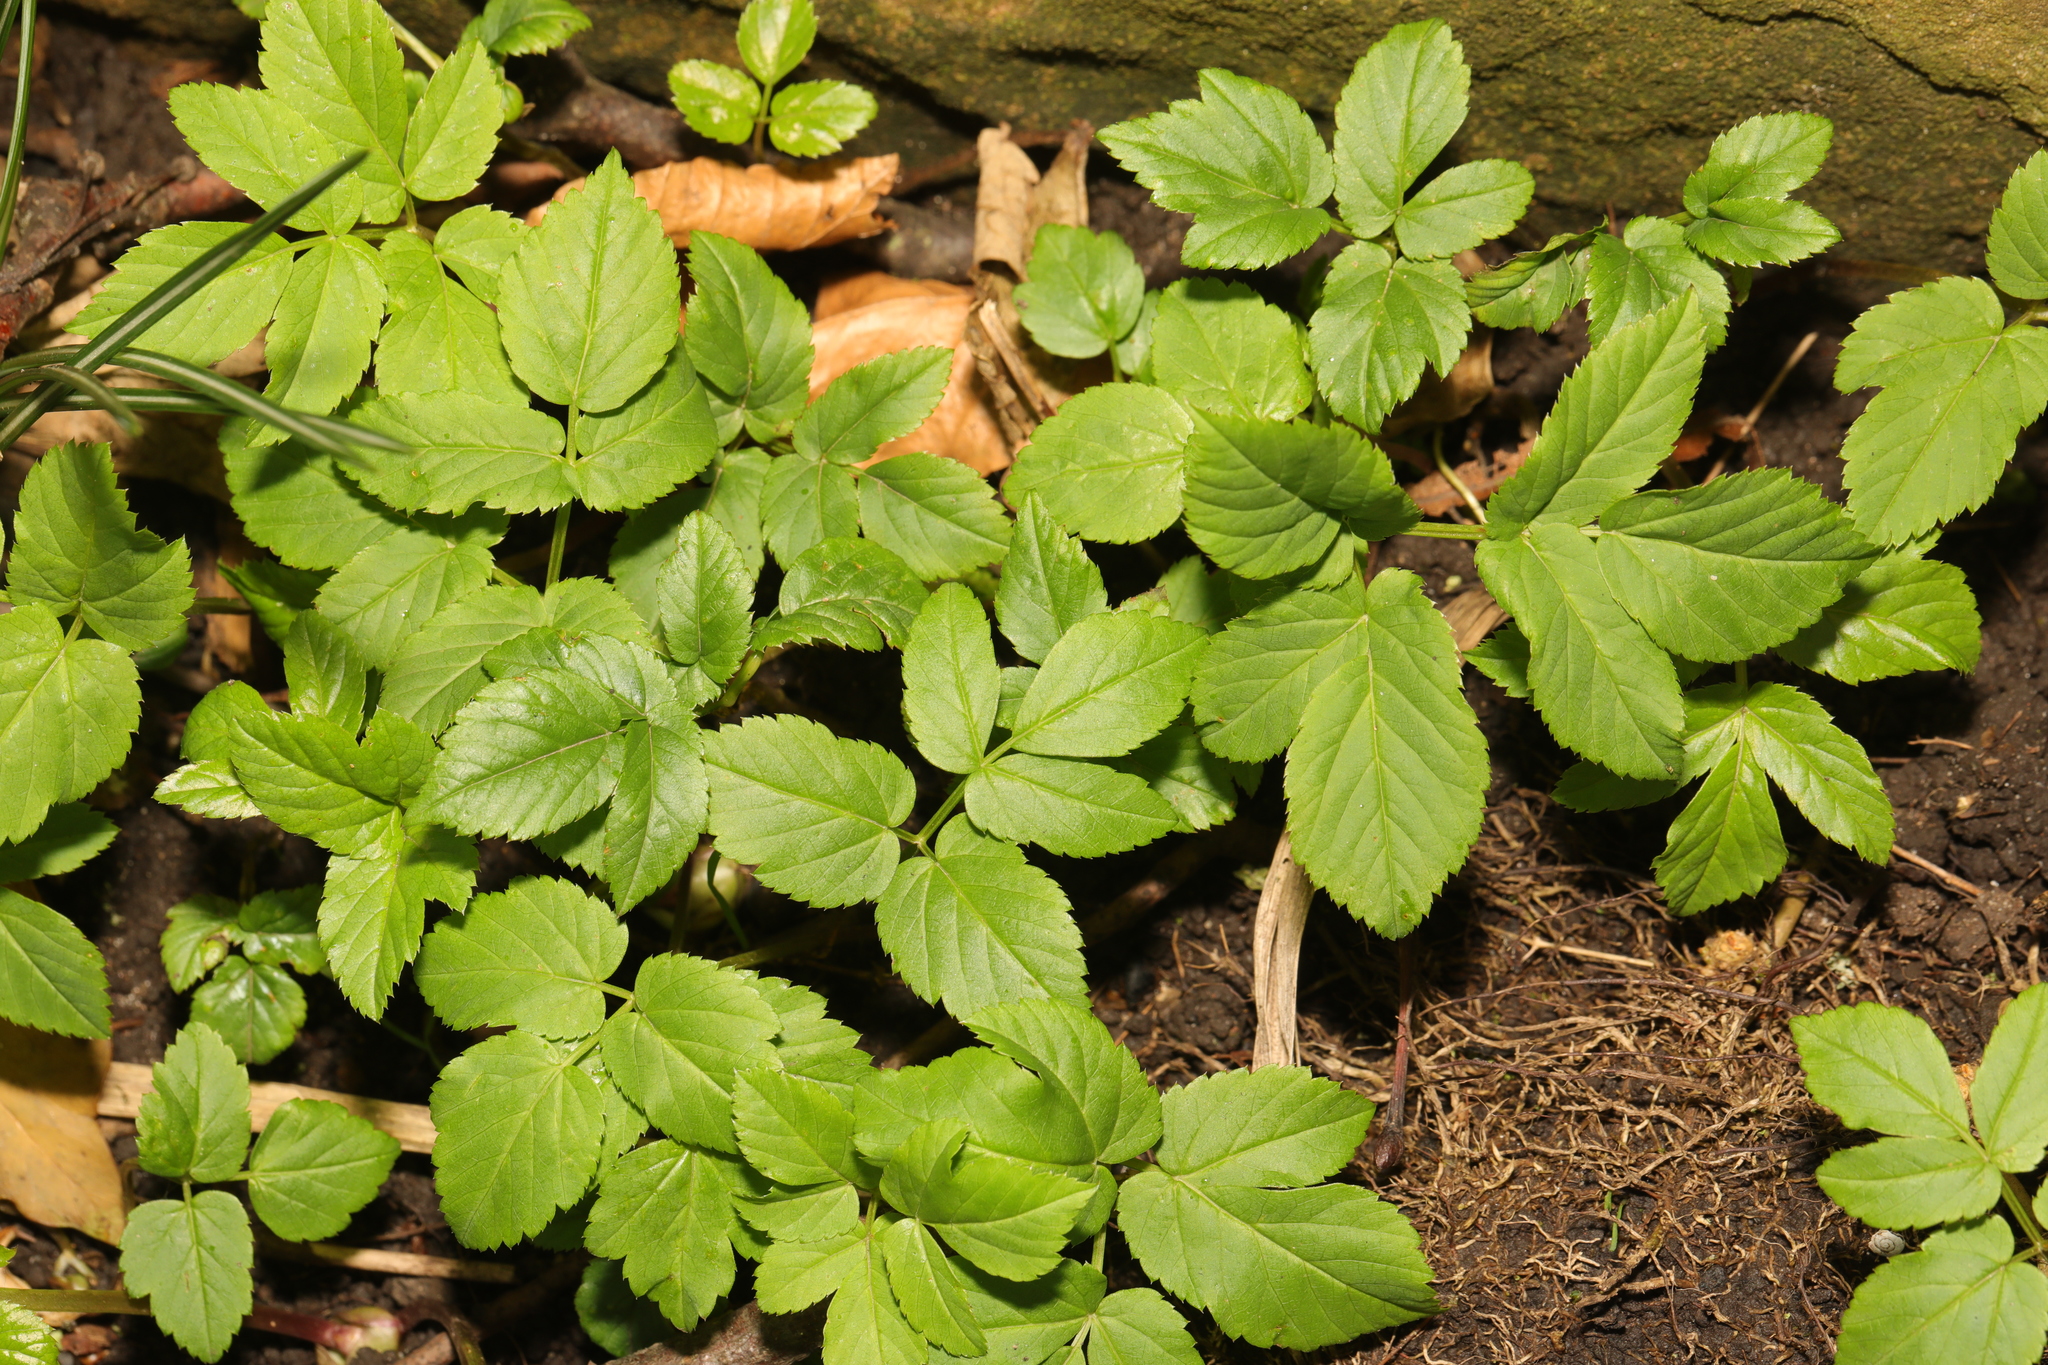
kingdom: Plantae
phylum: Tracheophyta
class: Magnoliopsida
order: Apiales
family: Apiaceae
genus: Aegopodium
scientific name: Aegopodium podagraria
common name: Ground-elder
